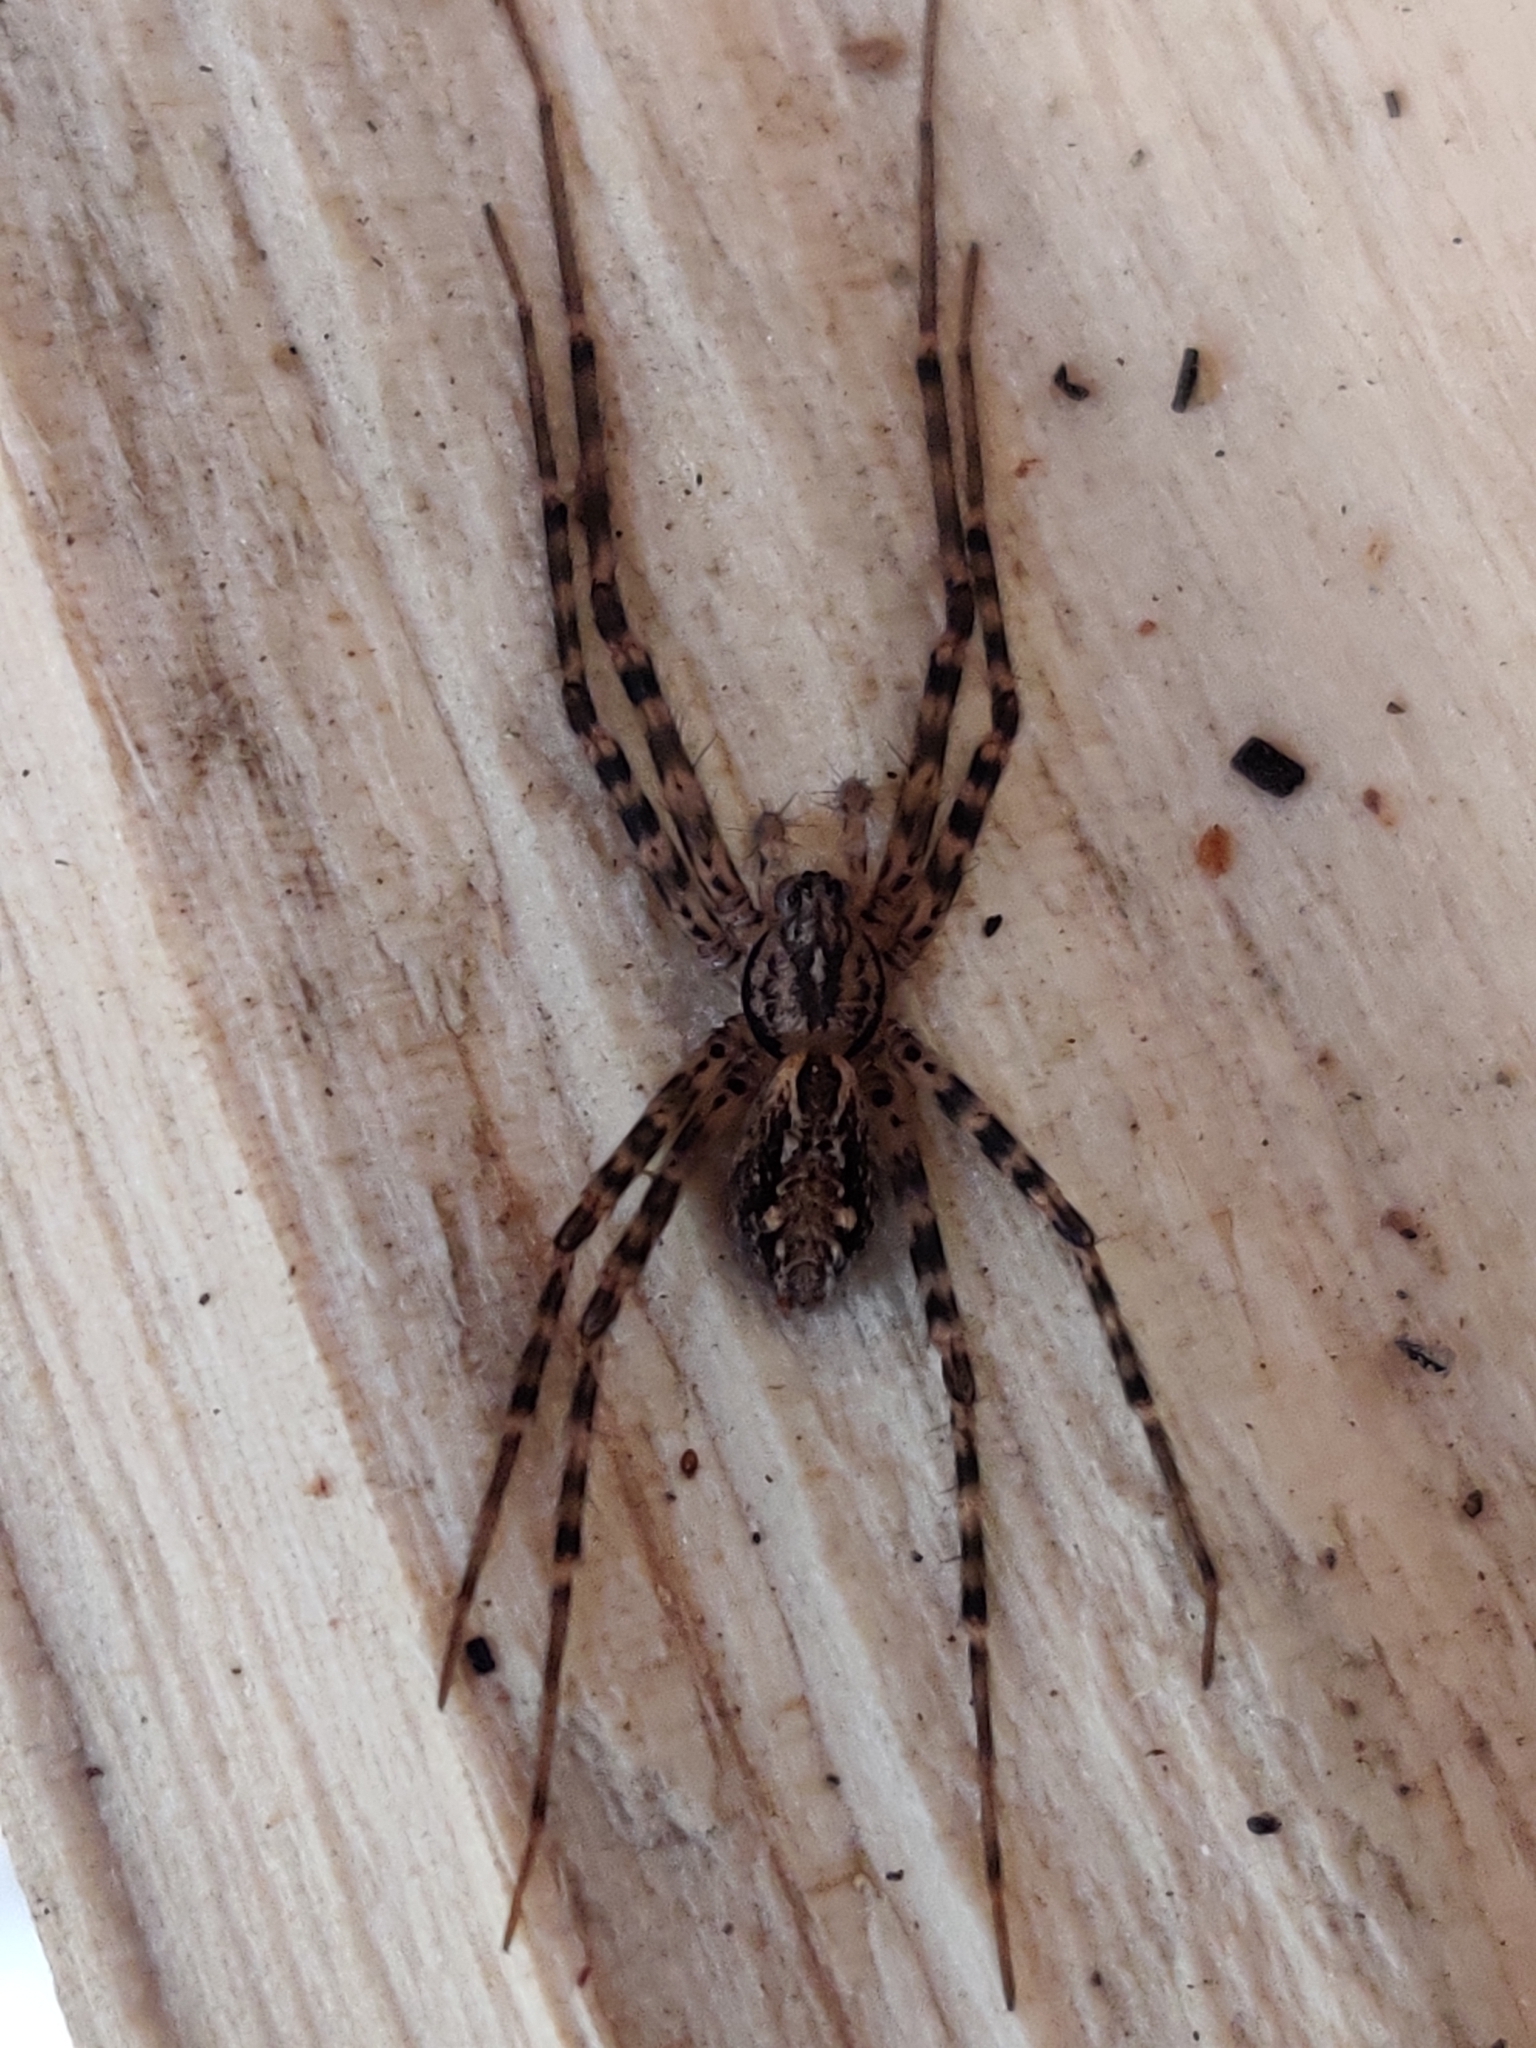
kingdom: Animalia
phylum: Arthropoda
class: Arachnida
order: Araneae
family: Stiphidiidae
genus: Stiphidion
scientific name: Stiphidion facetum
